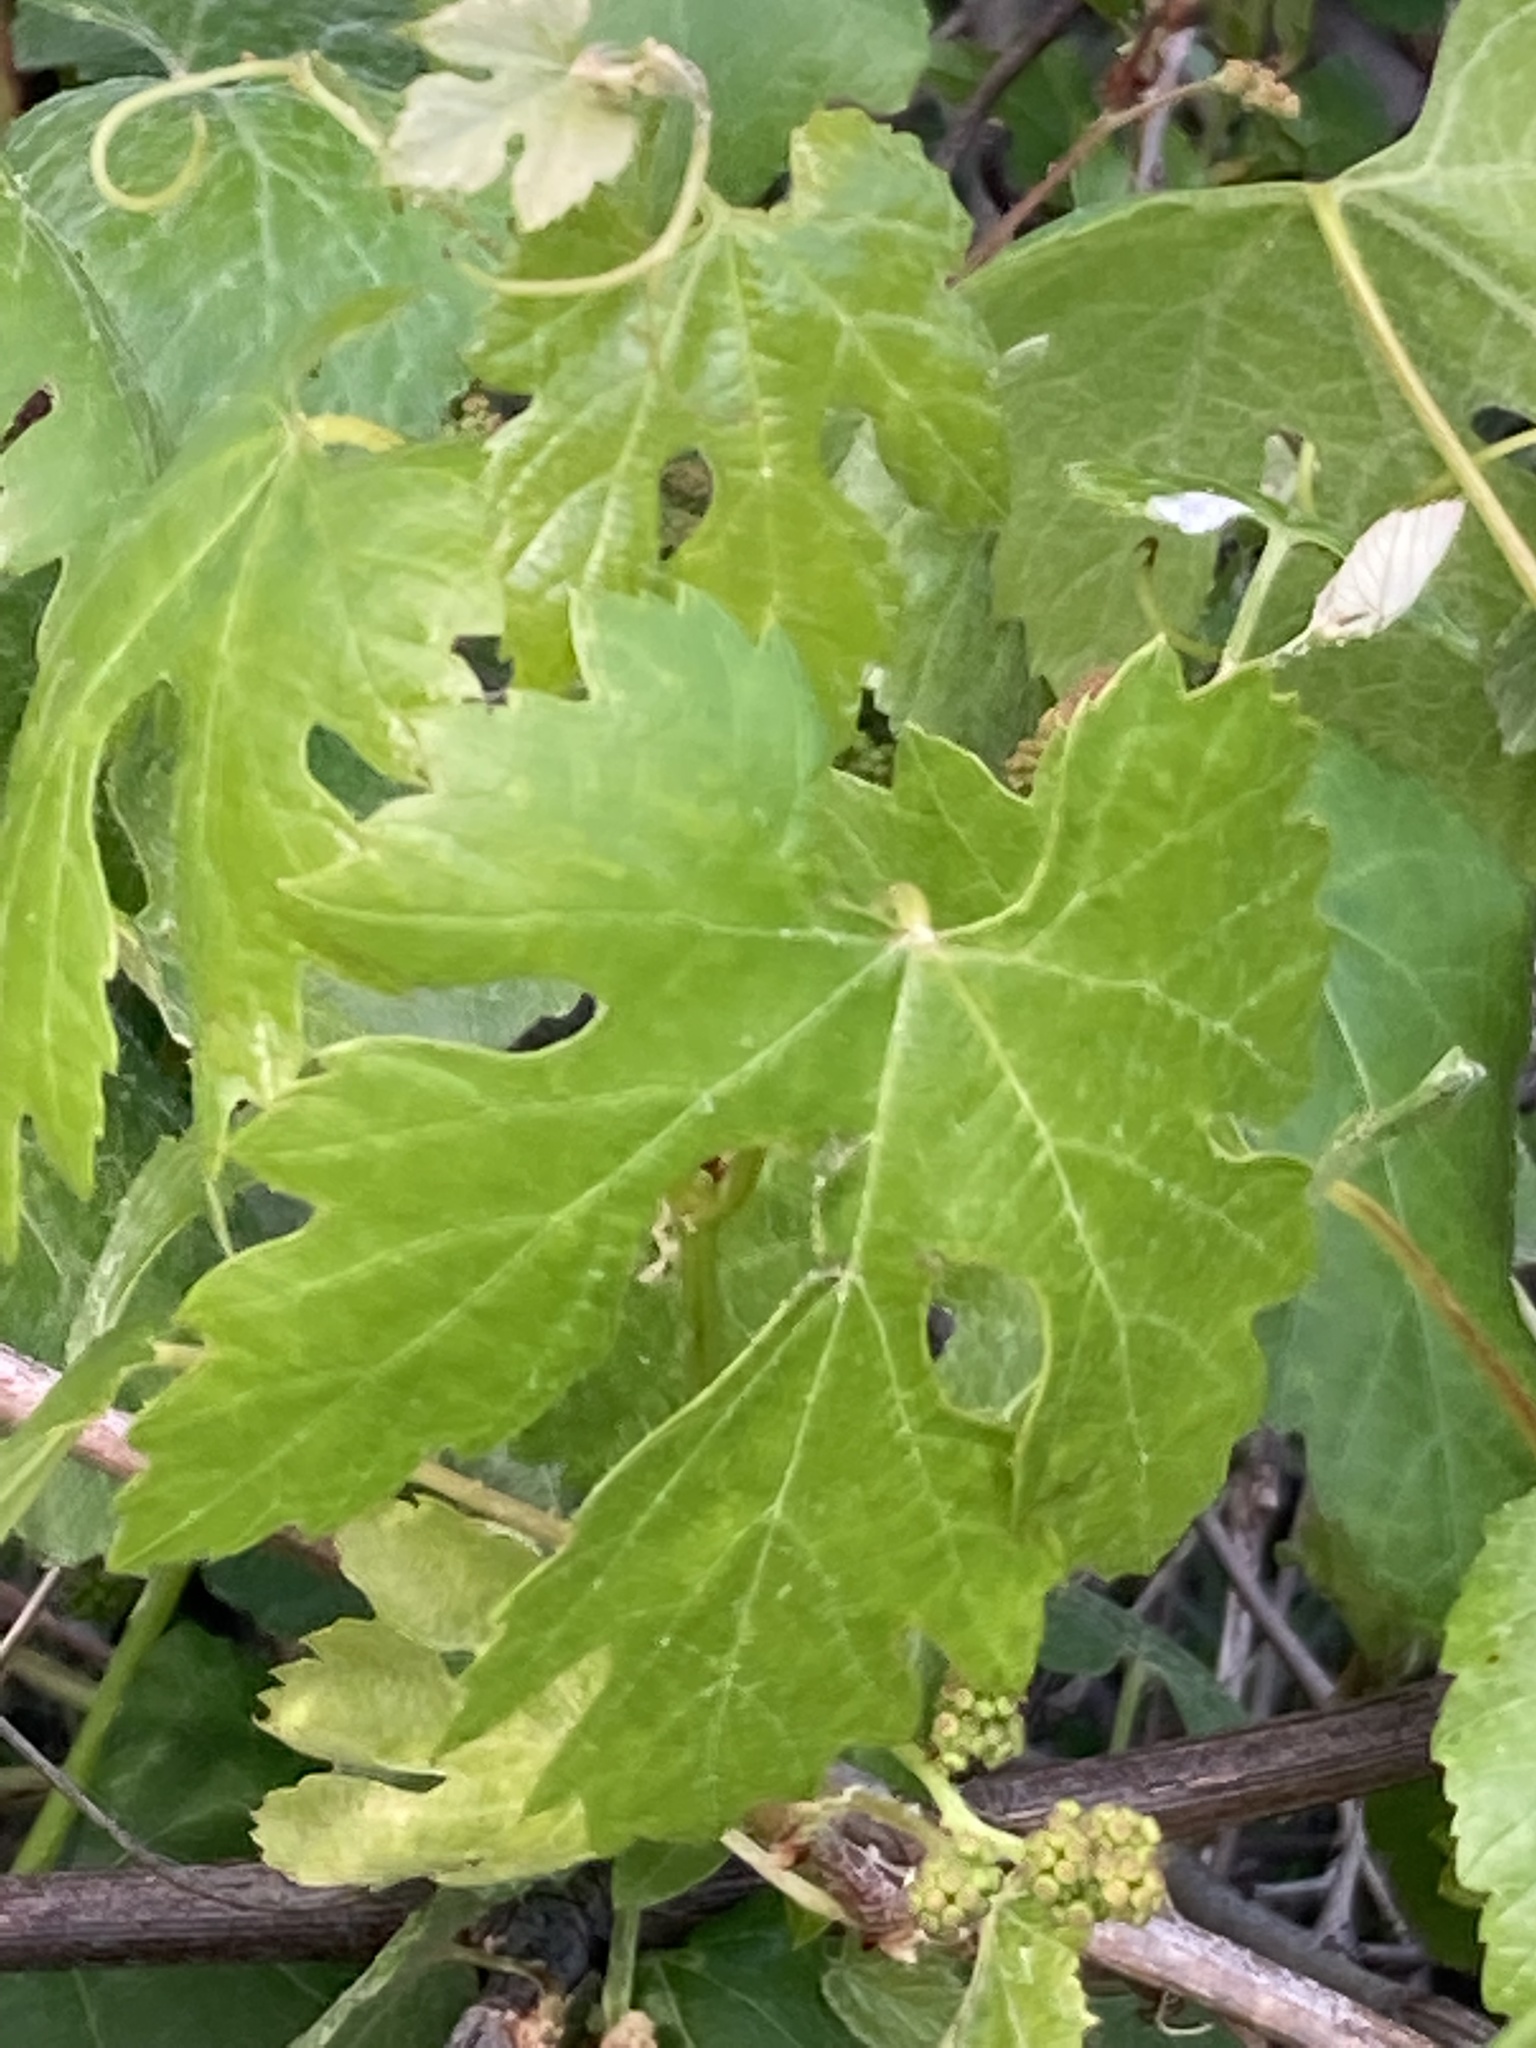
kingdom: Plantae
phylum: Tracheophyta
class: Magnoliopsida
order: Vitales
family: Vitaceae
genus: Vitis
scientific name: Vitis californica
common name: California wild grape
